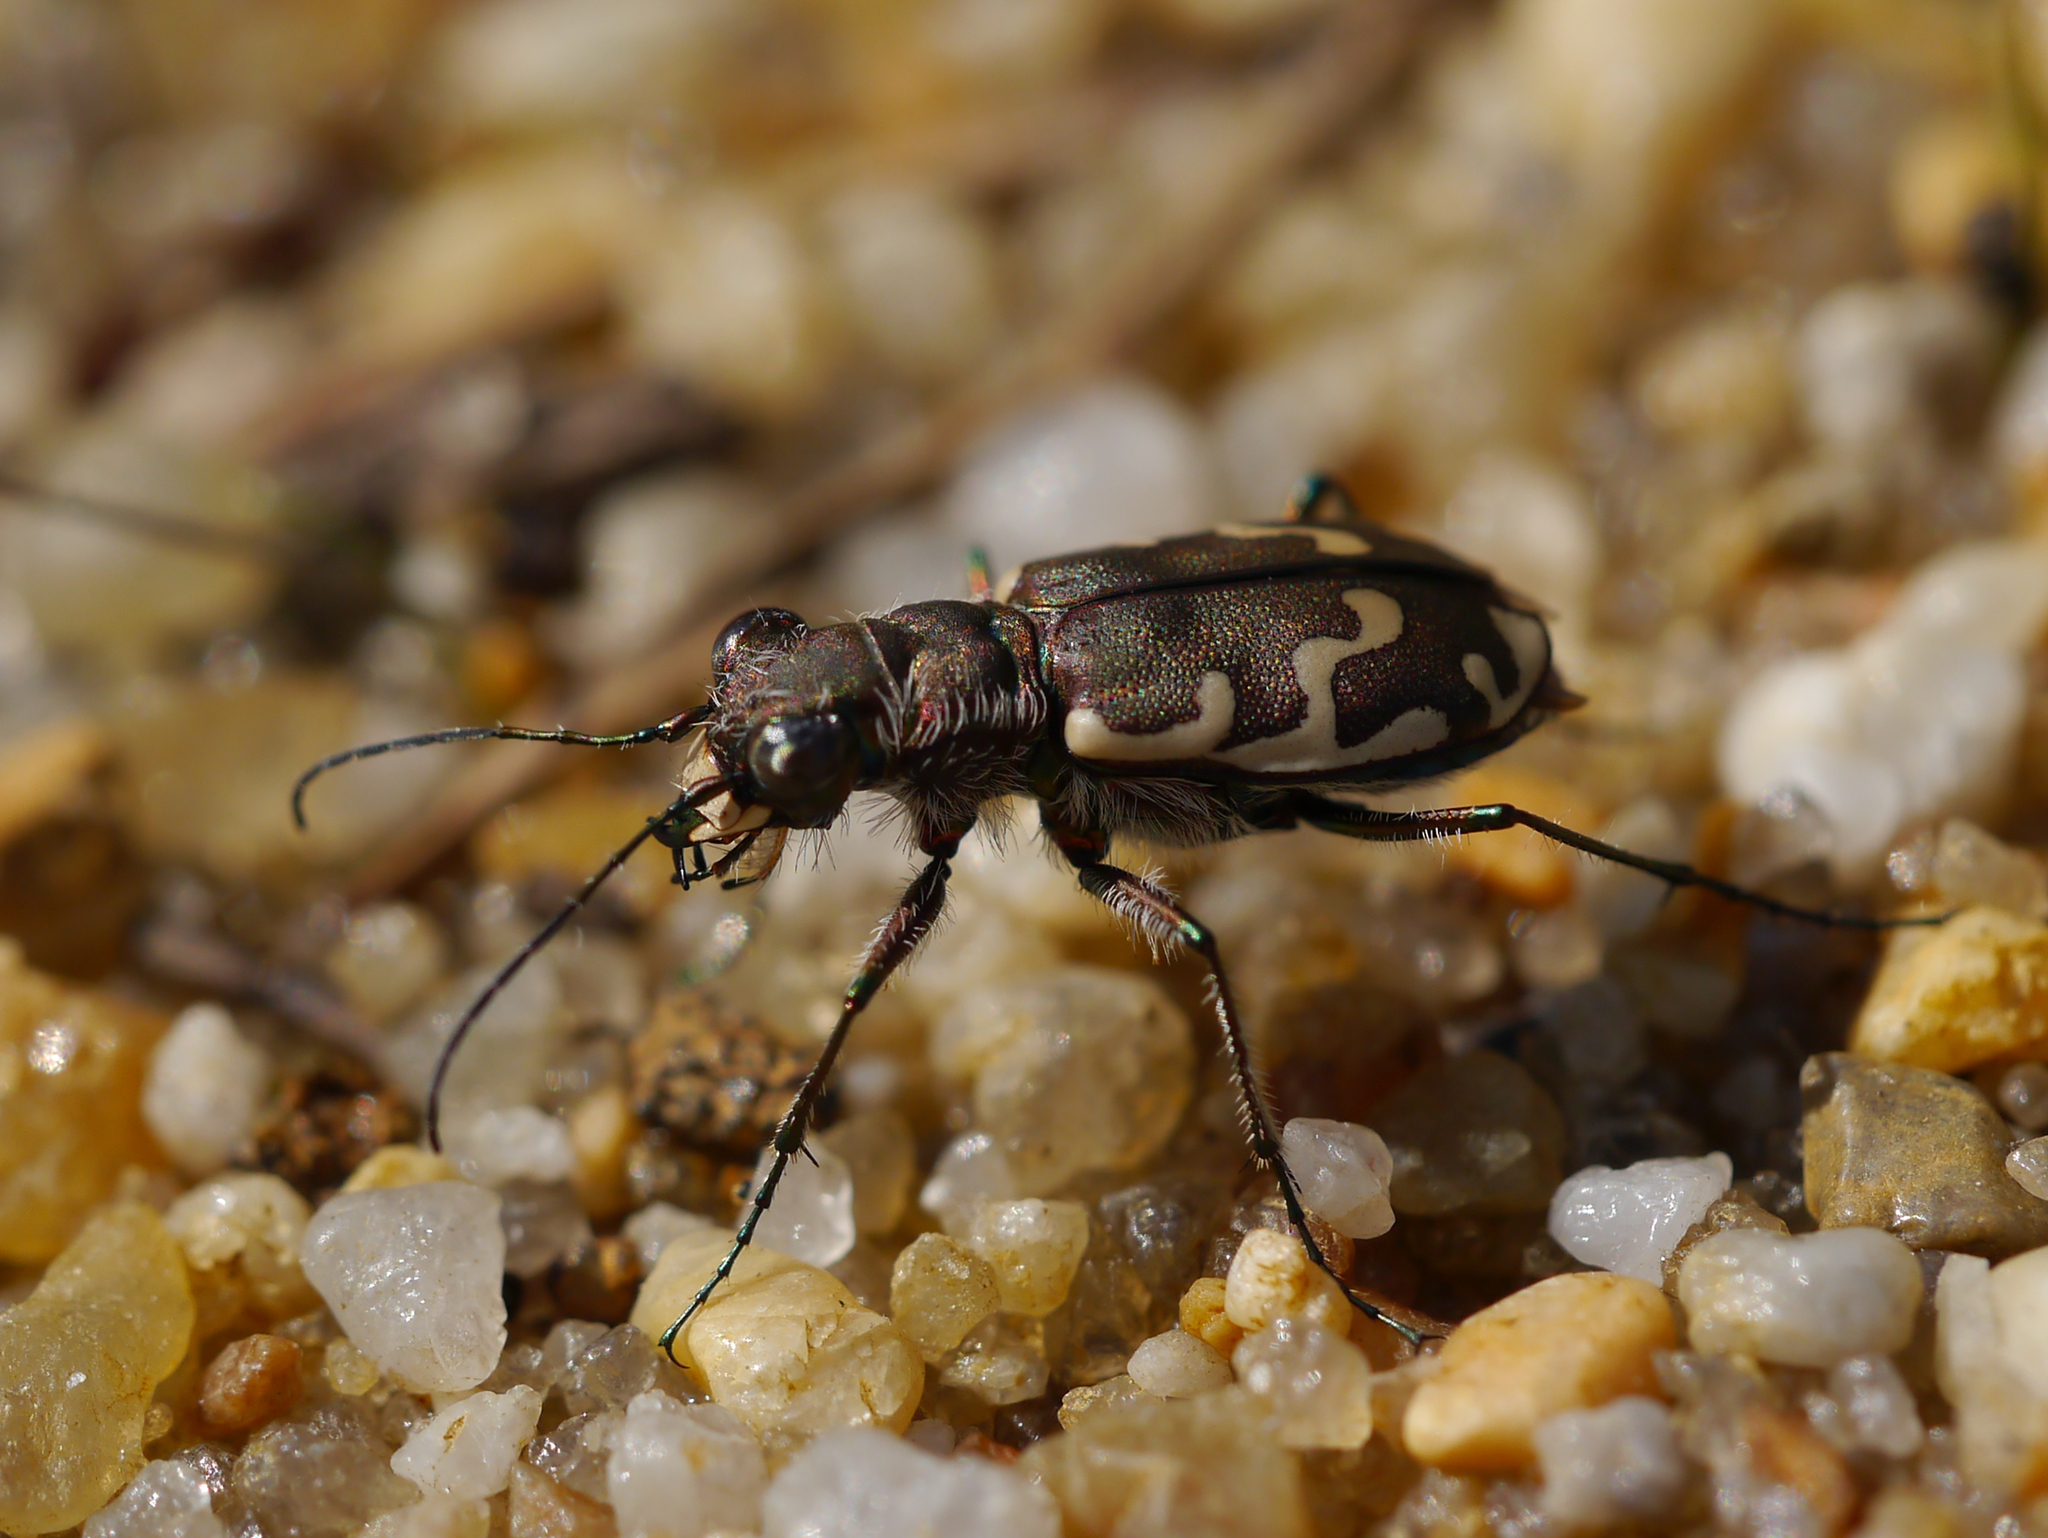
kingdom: Animalia
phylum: Arthropoda
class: Insecta
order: Coleoptera
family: Carabidae
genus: Cicindela
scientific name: Cicindela repanda
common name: Bronzed tiger beetle
